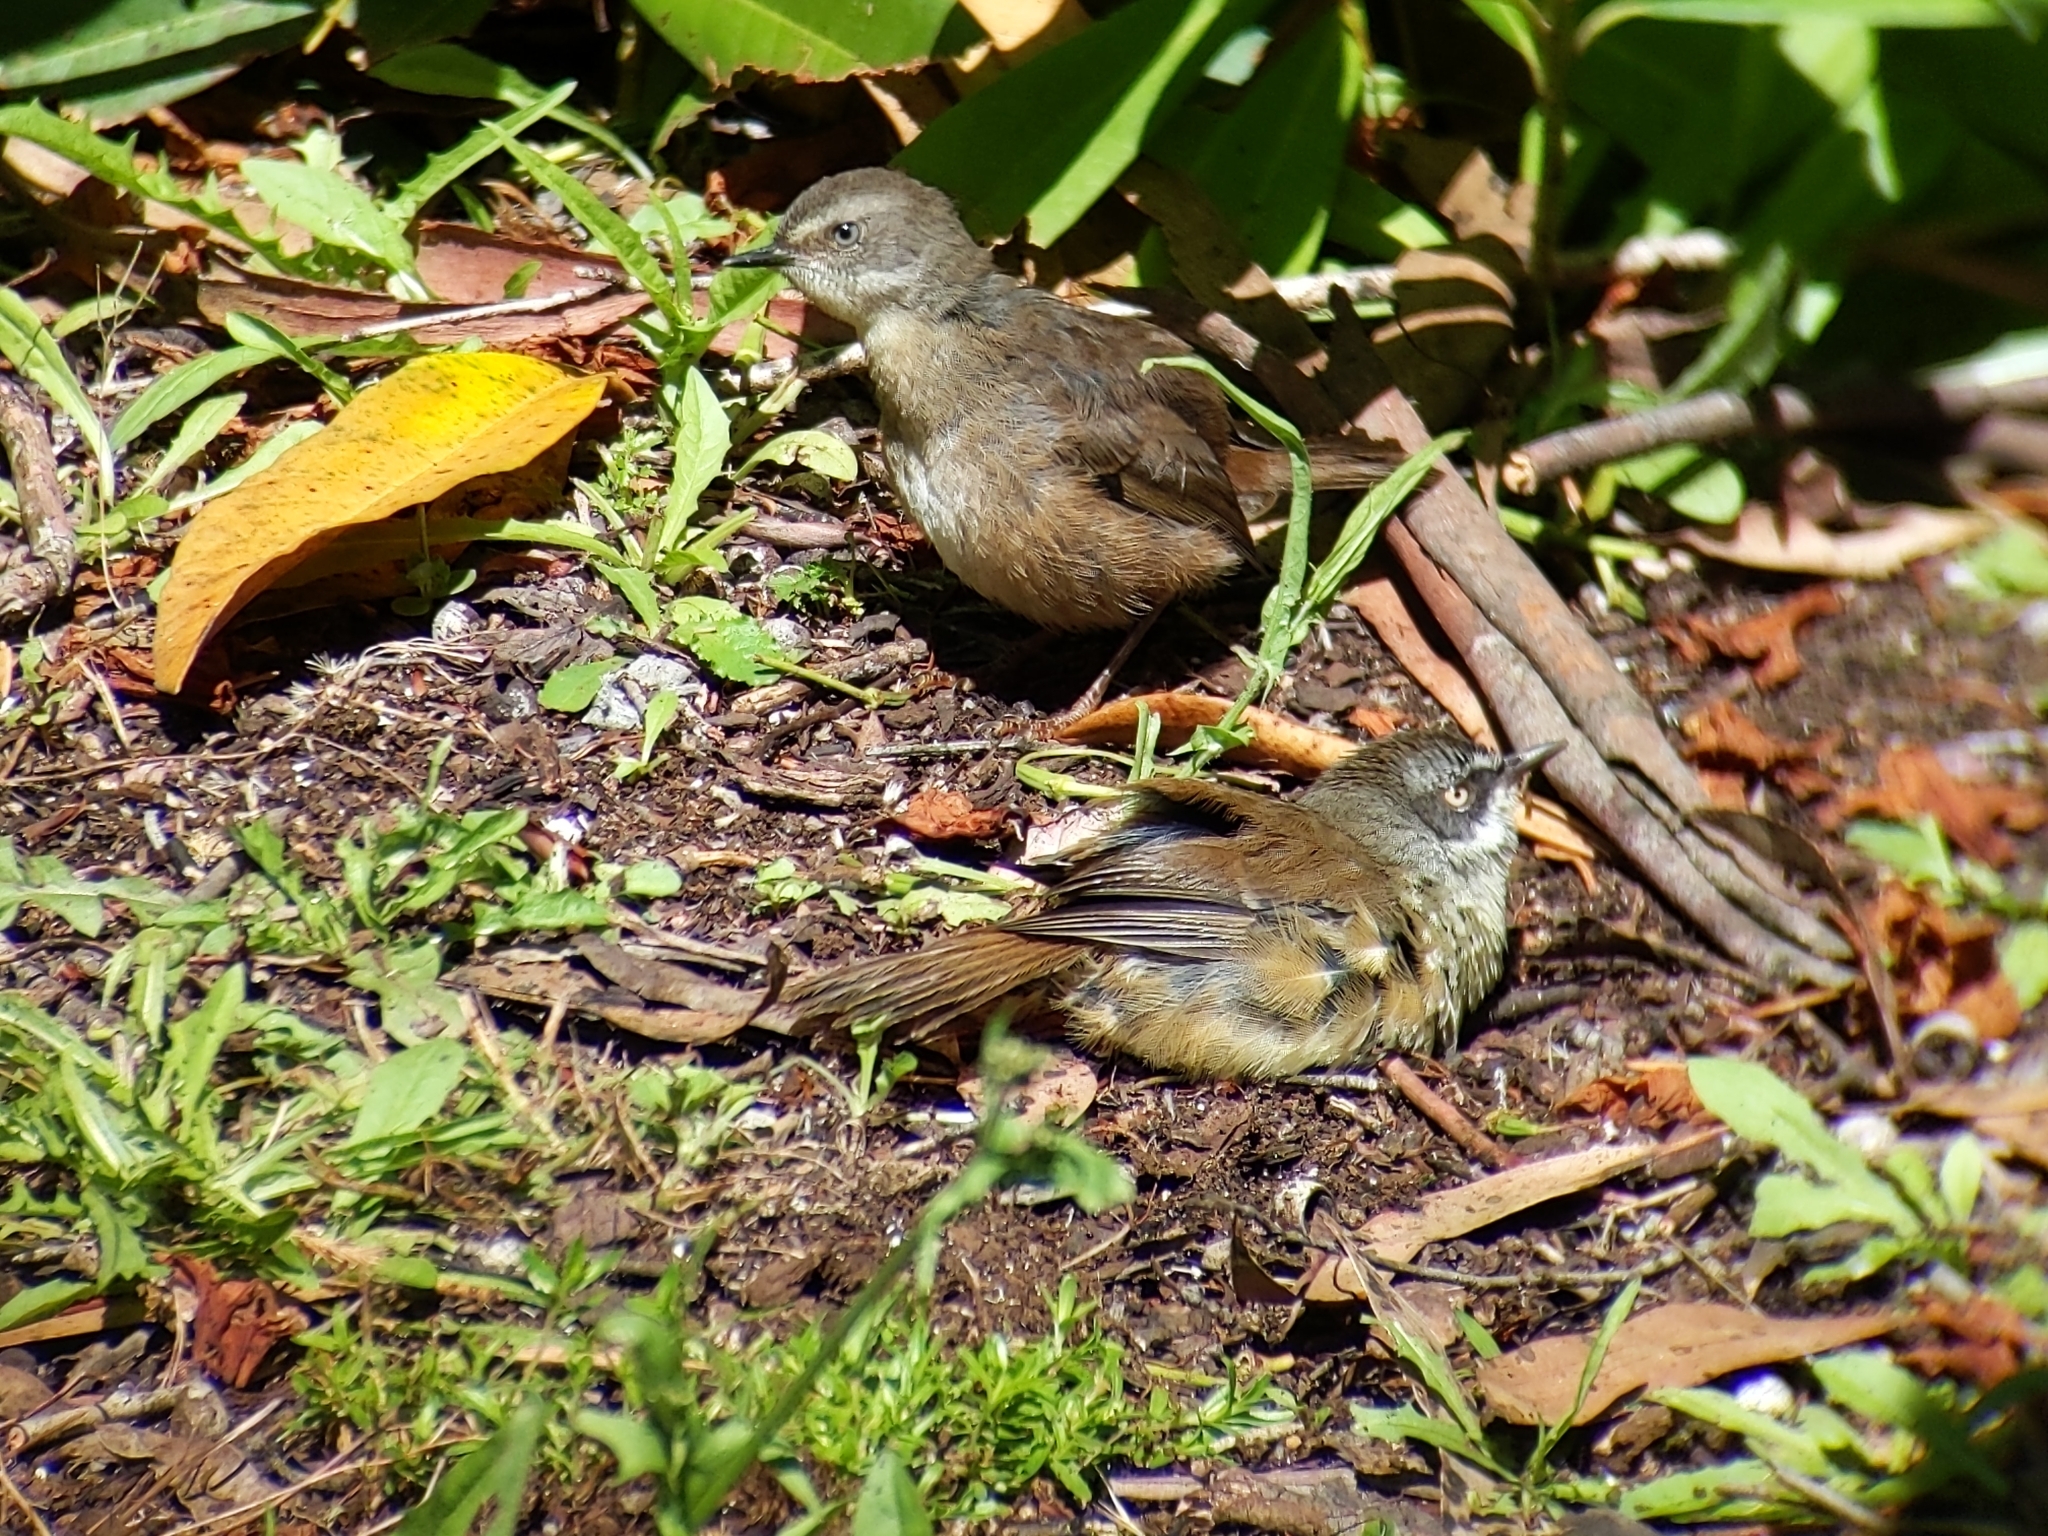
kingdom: Animalia
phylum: Chordata
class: Aves
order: Passeriformes
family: Acanthizidae
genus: Sericornis
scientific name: Sericornis frontalis
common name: White-browed scrubwren
